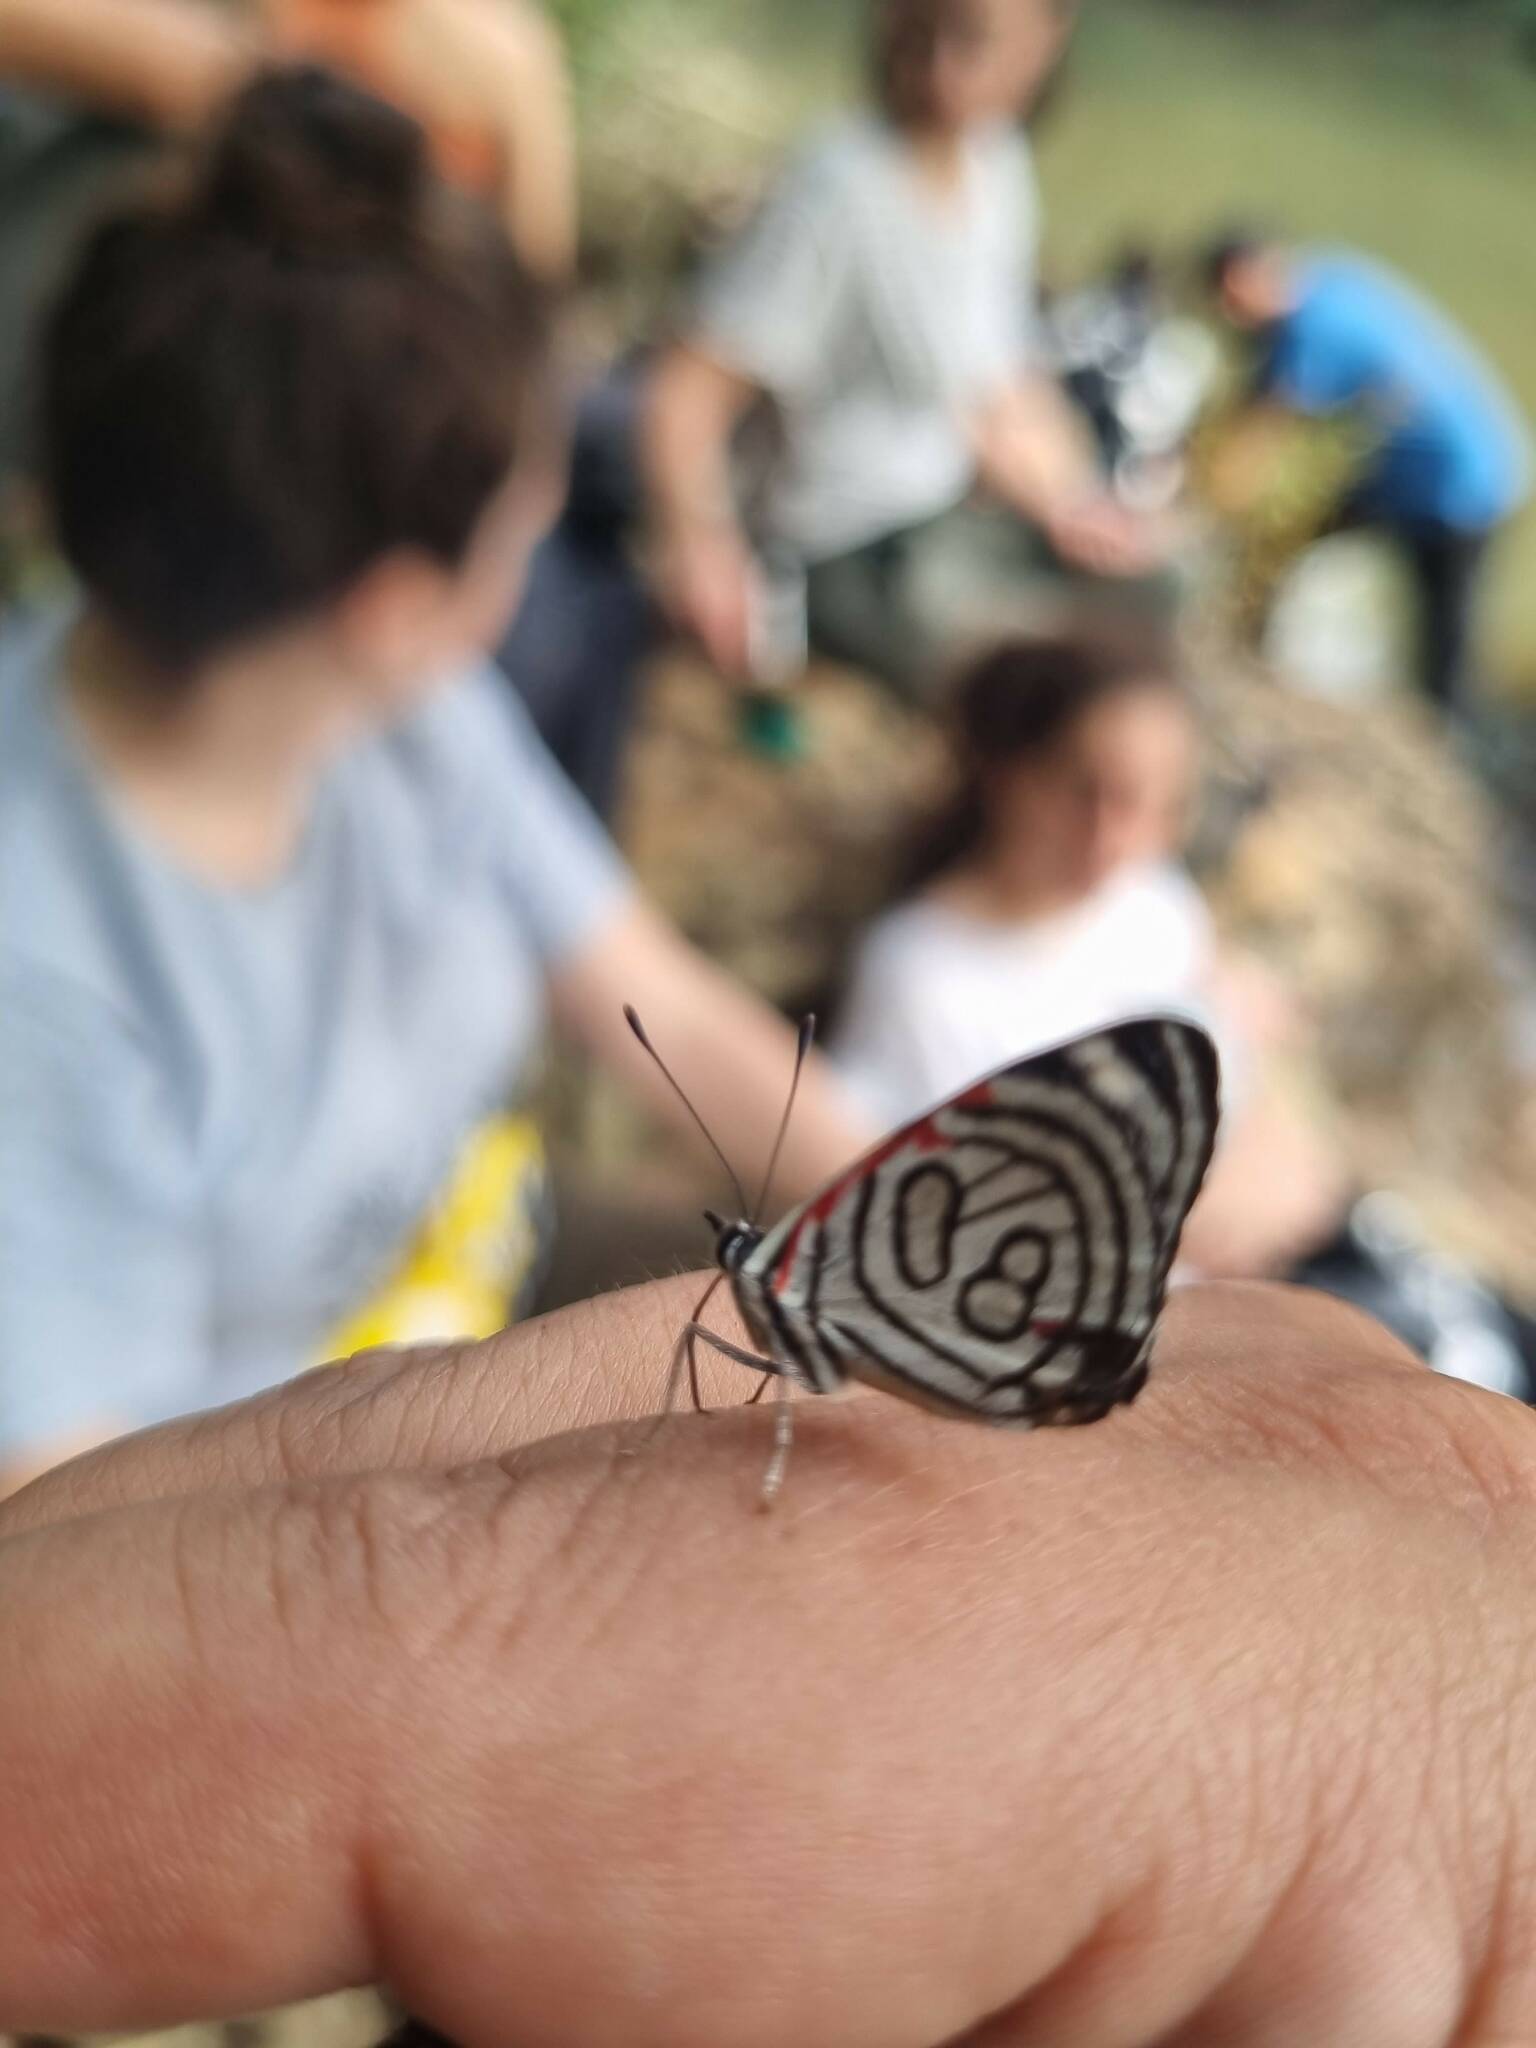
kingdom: Animalia
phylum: Arthropoda
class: Insecta
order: Lepidoptera
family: Nymphalidae
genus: Diaethria
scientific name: Diaethria candrena
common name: Number eighty
